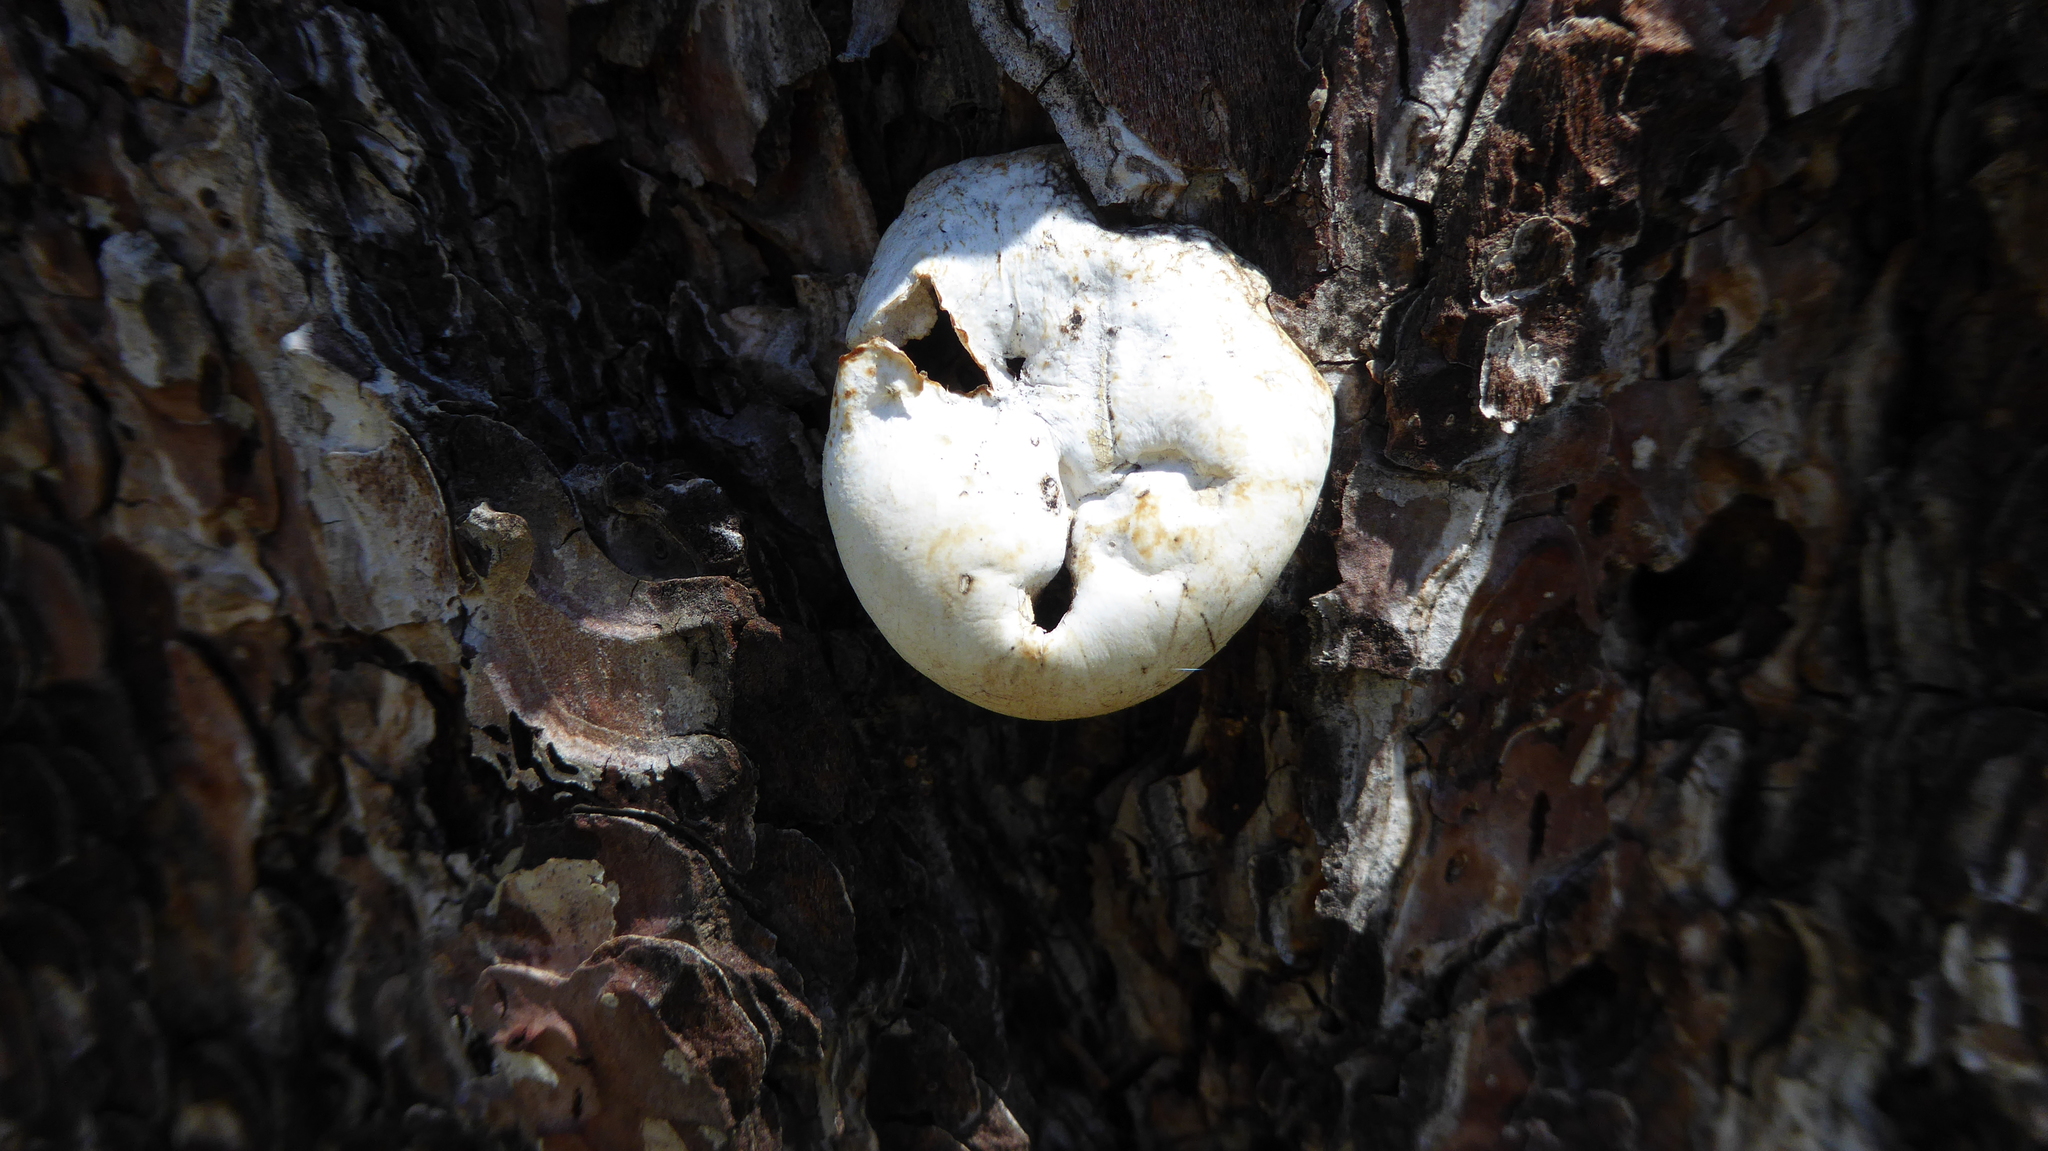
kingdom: Fungi
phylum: Basidiomycota
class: Agaricomycetes
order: Polyporales
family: Polyporaceae
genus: Cryptoporus
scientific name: Cryptoporus volvatus
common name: Veiled polypore
